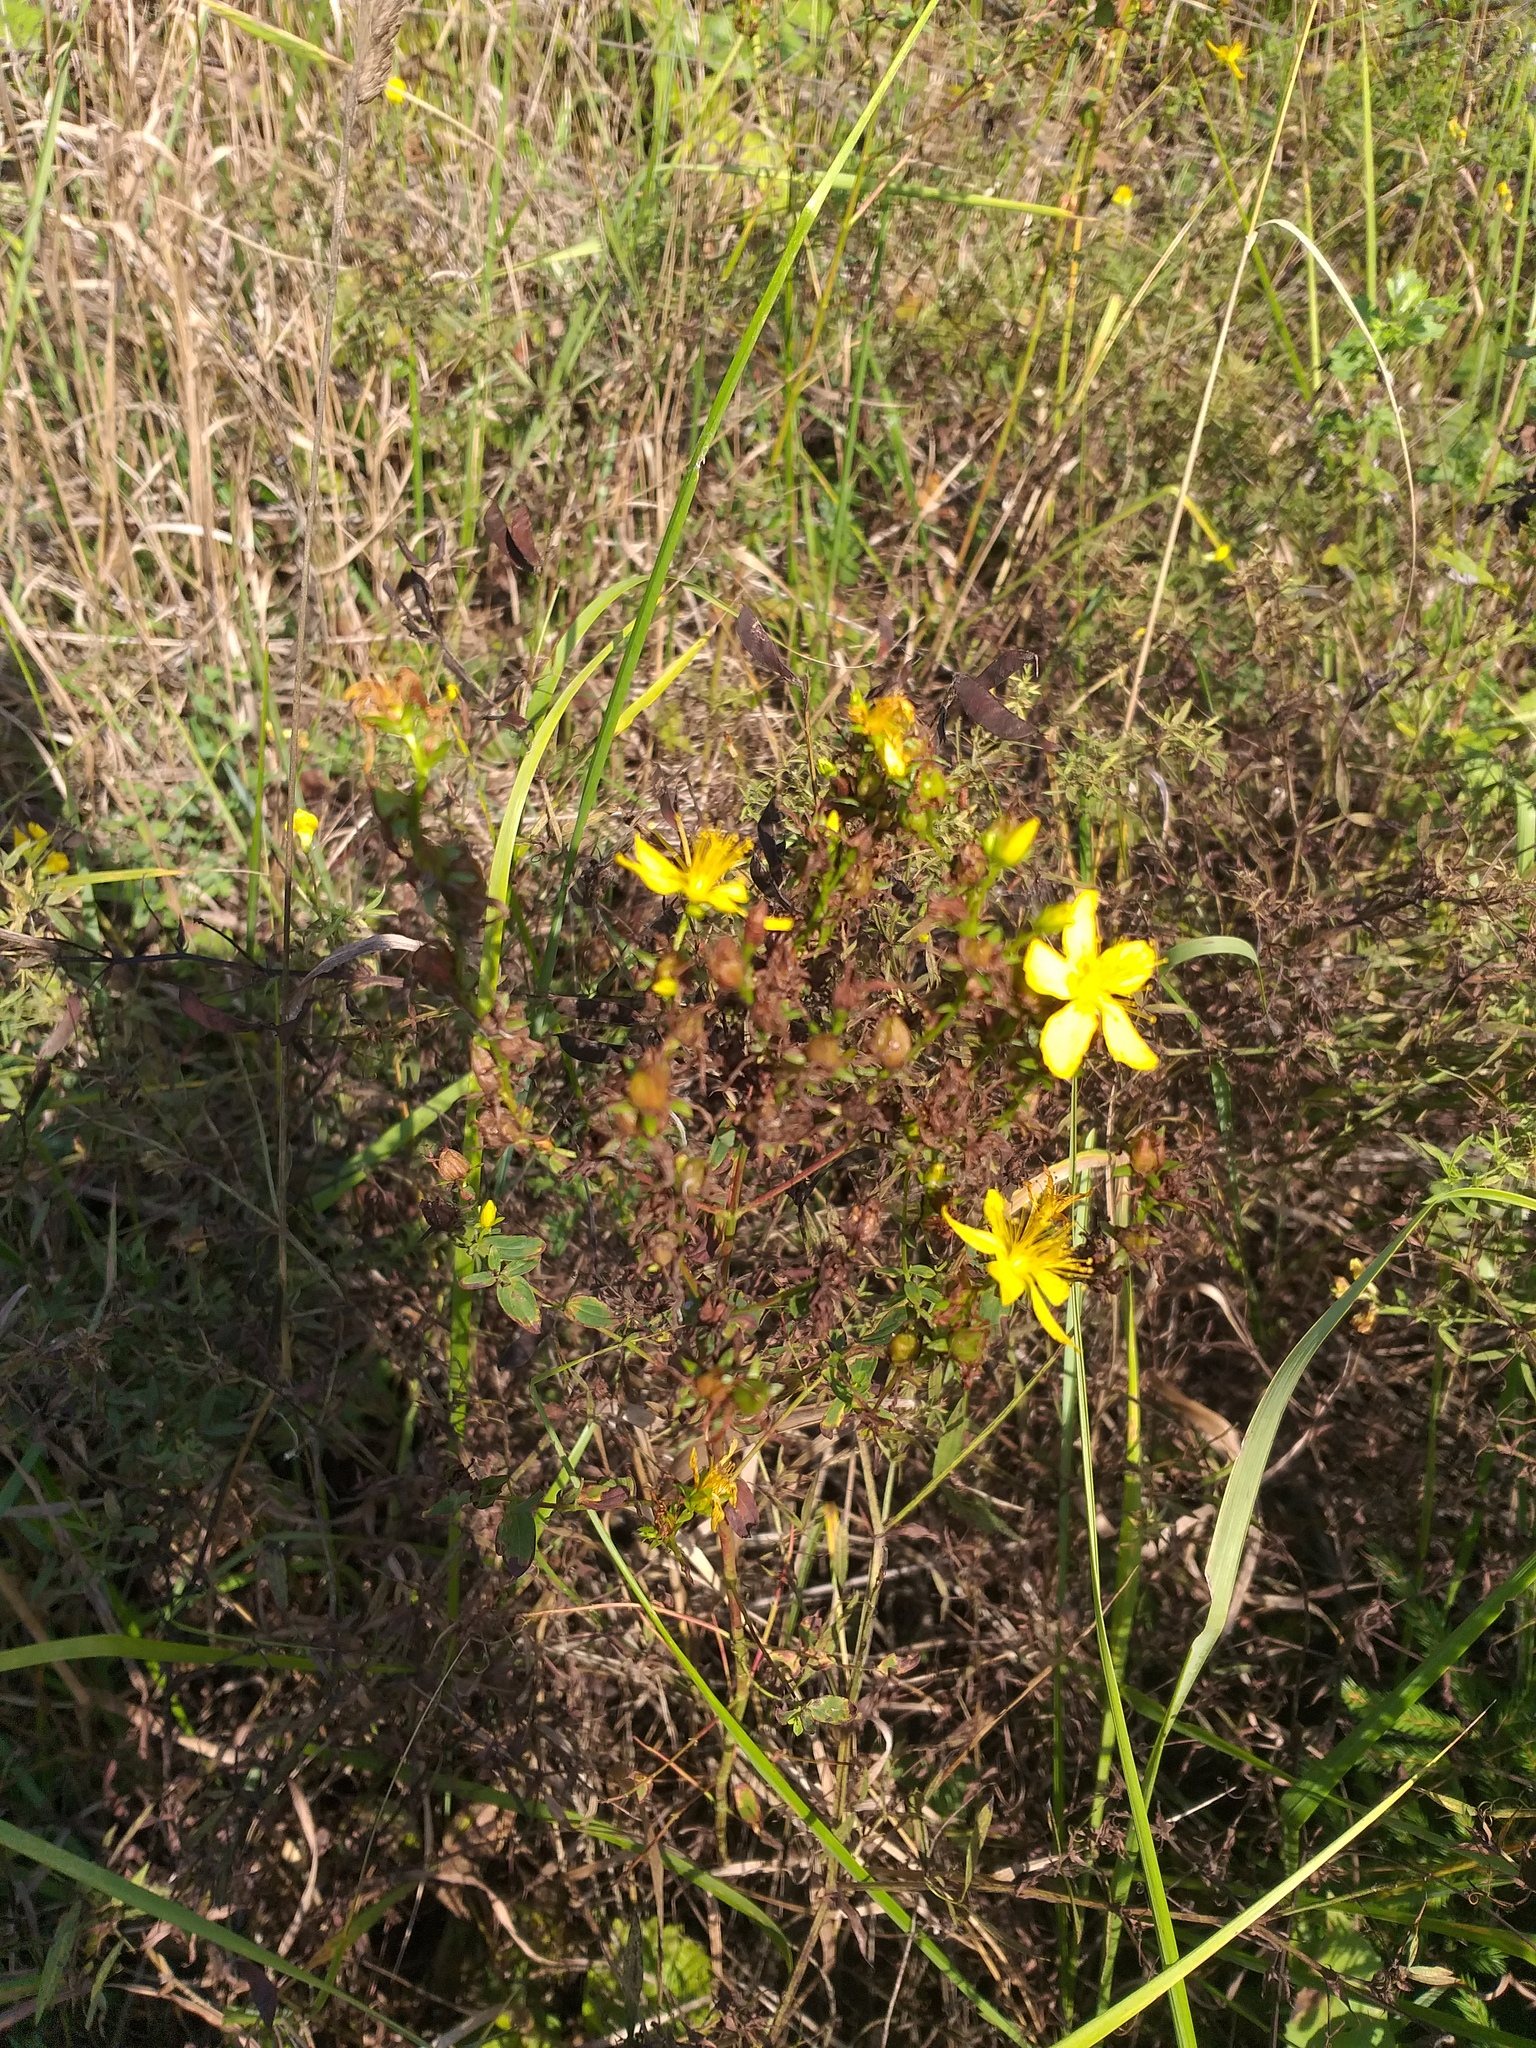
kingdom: Plantae
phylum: Tracheophyta
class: Magnoliopsida
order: Malpighiales
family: Hypericaceae
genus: Hypericum
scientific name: Hypericum perforatum
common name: Common st. johnswort
